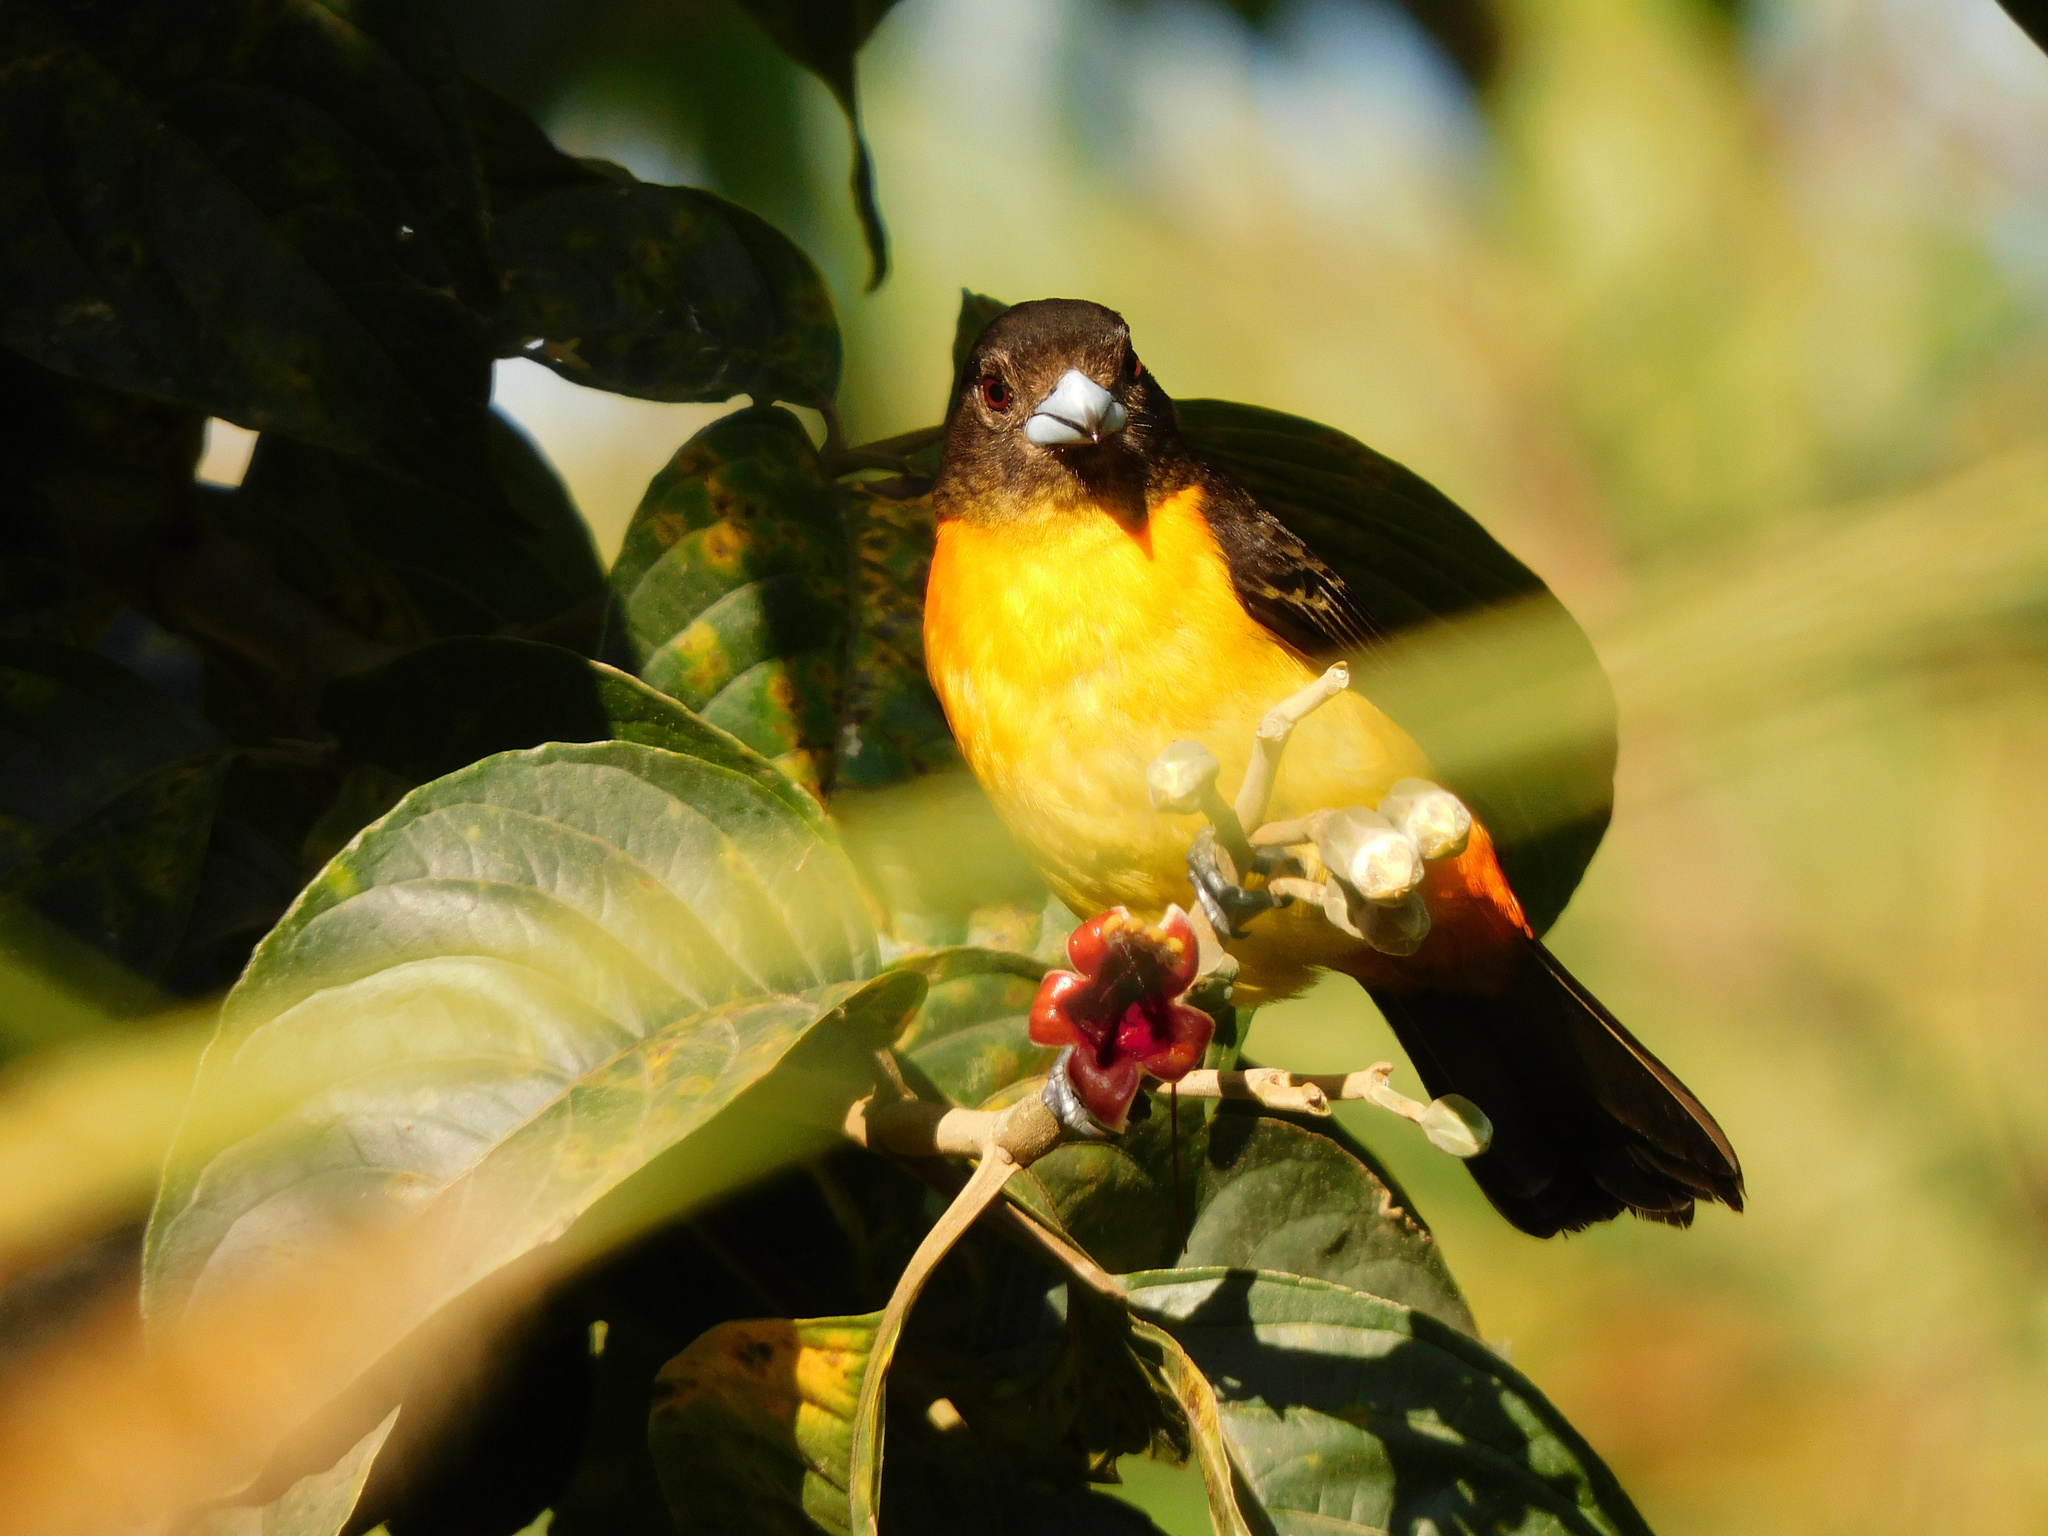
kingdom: Animalia
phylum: Chordata
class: Aves
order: Passeriformes
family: Thraupidae
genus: Ramphocelus
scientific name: Ramphocelus flammigerus
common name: Flame-rumped tanager
